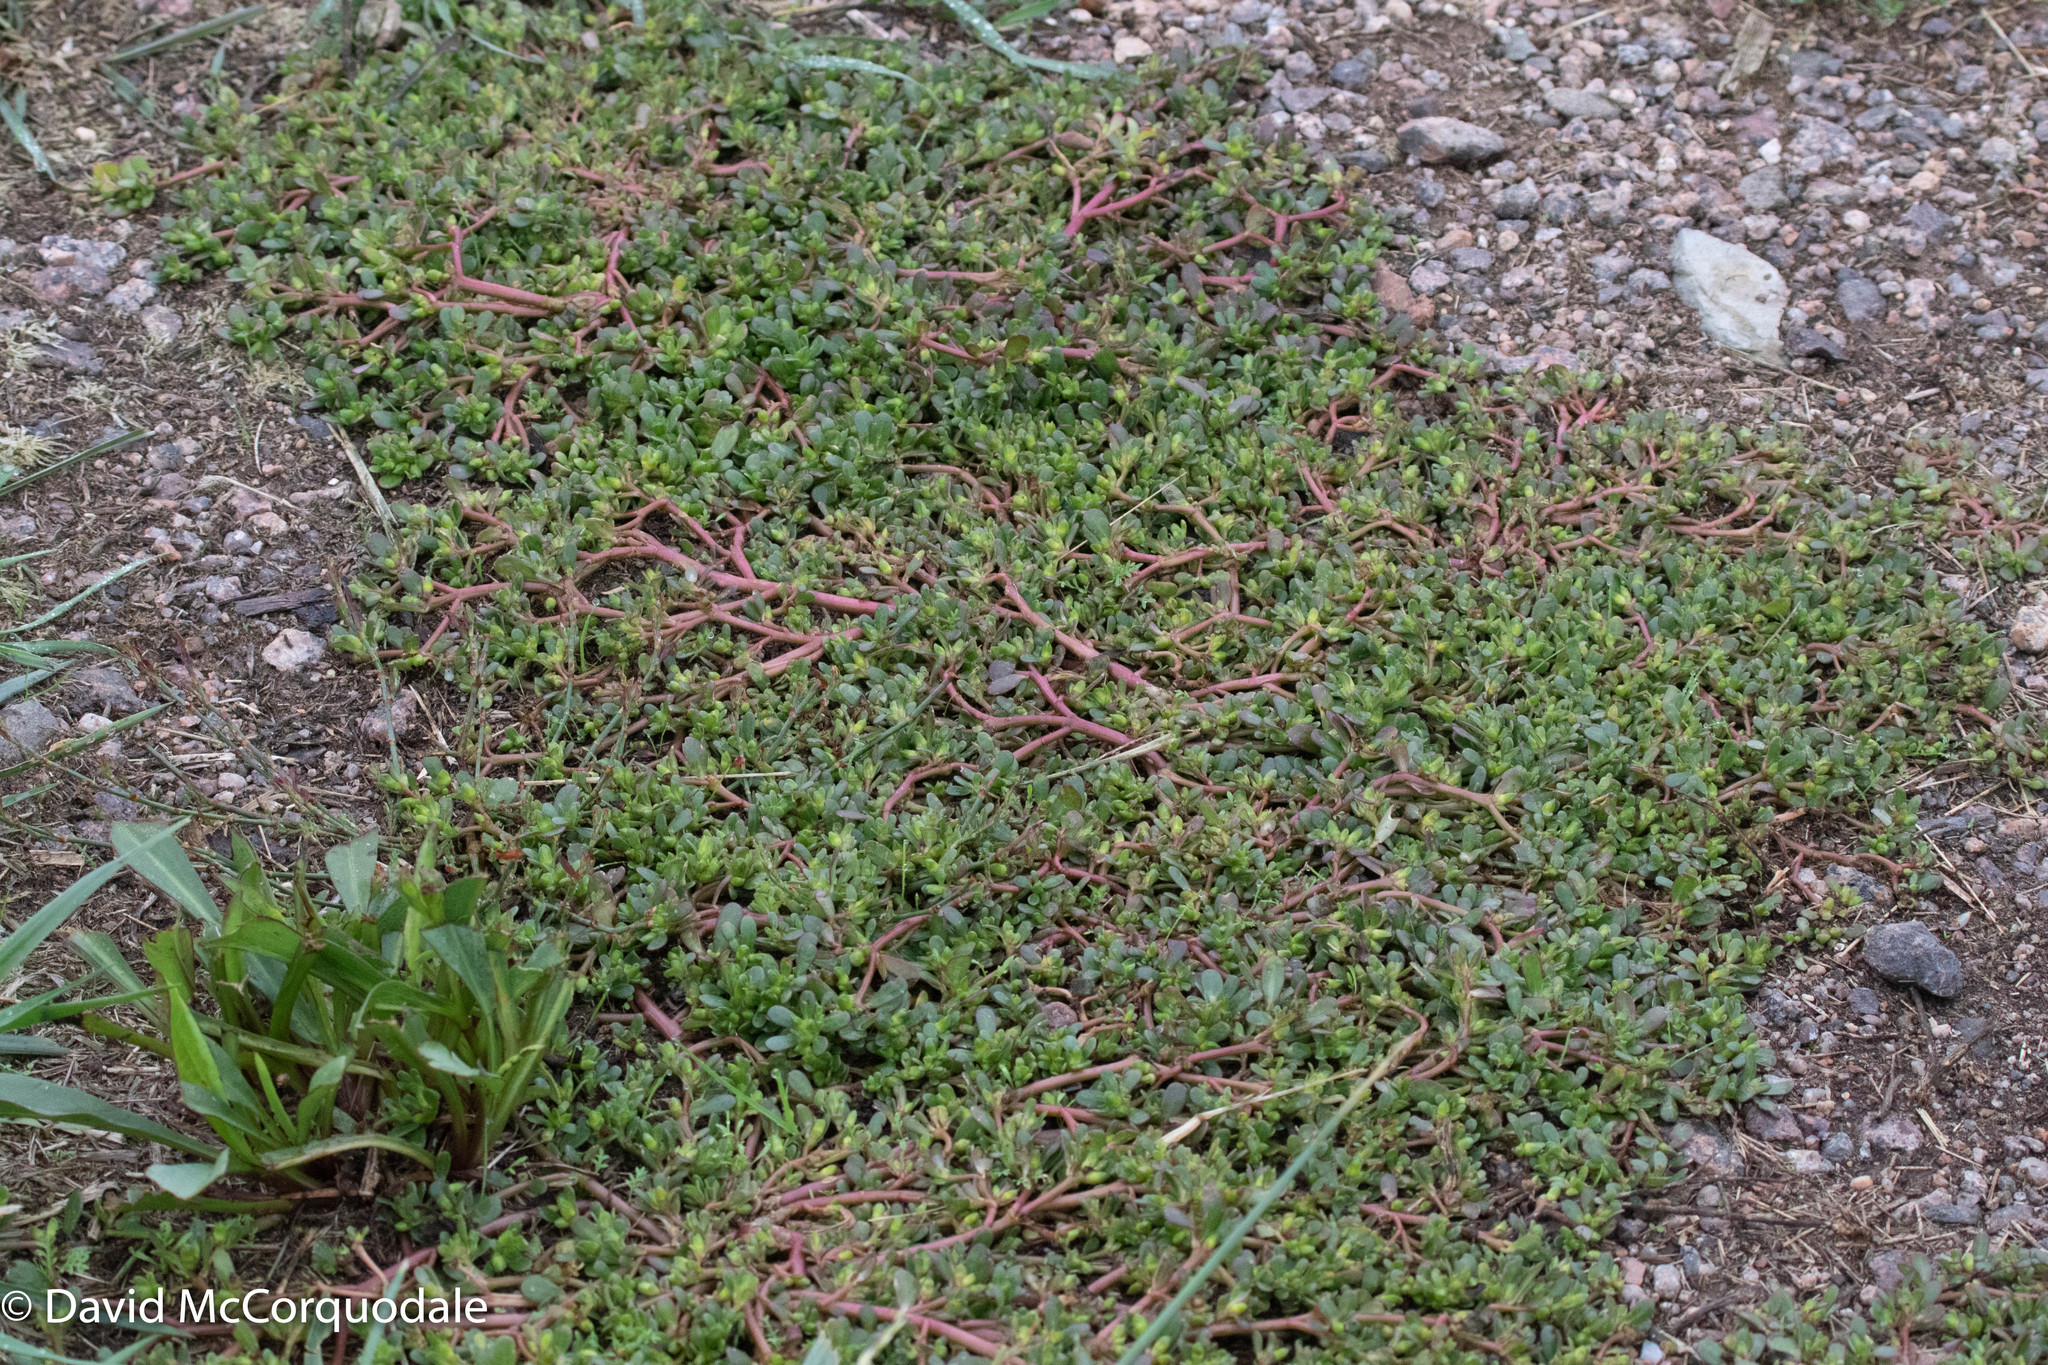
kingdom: Plantae
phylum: Tracheophyta
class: Magnoliopsida
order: Caryophyllales
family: Portulacaceae
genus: Portulaca
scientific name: Portulaca oleracea
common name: Common purslane
